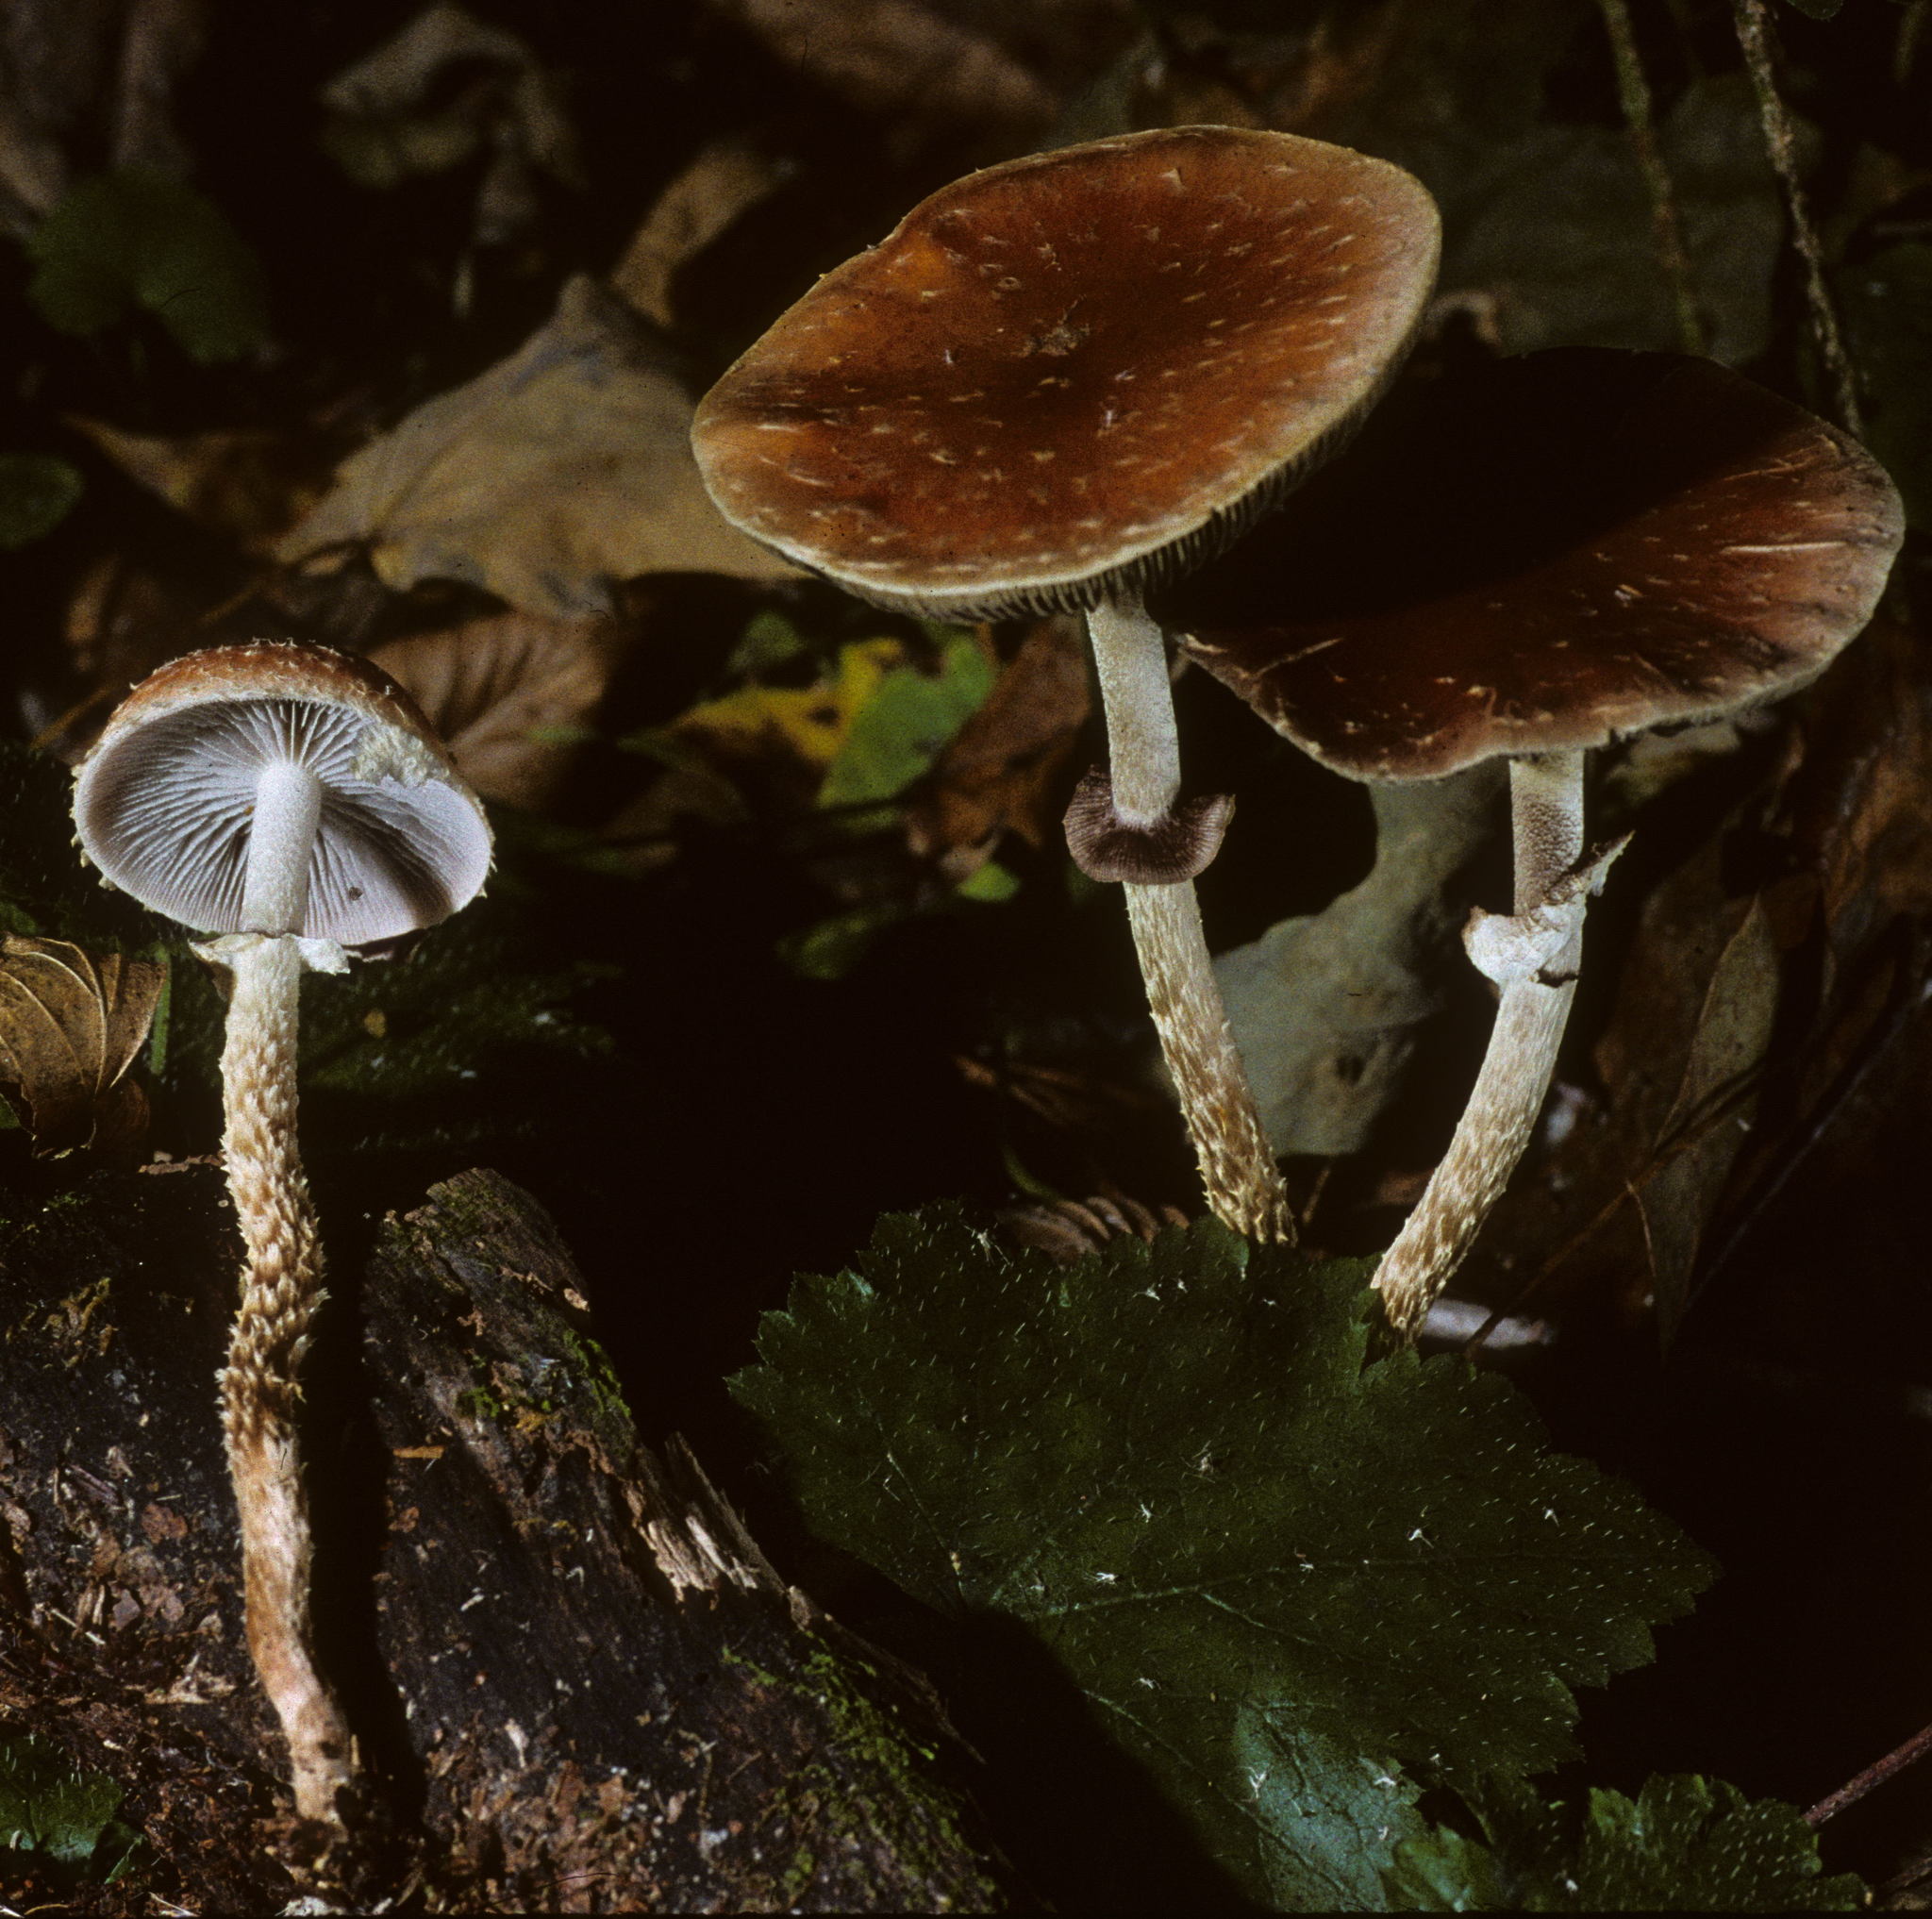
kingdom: Fungi
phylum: Basidiomycota
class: Agaricomycetes
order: Agaricales
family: Strophariaceae
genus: Leratiomyces
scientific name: Leratiomyces squamosus
